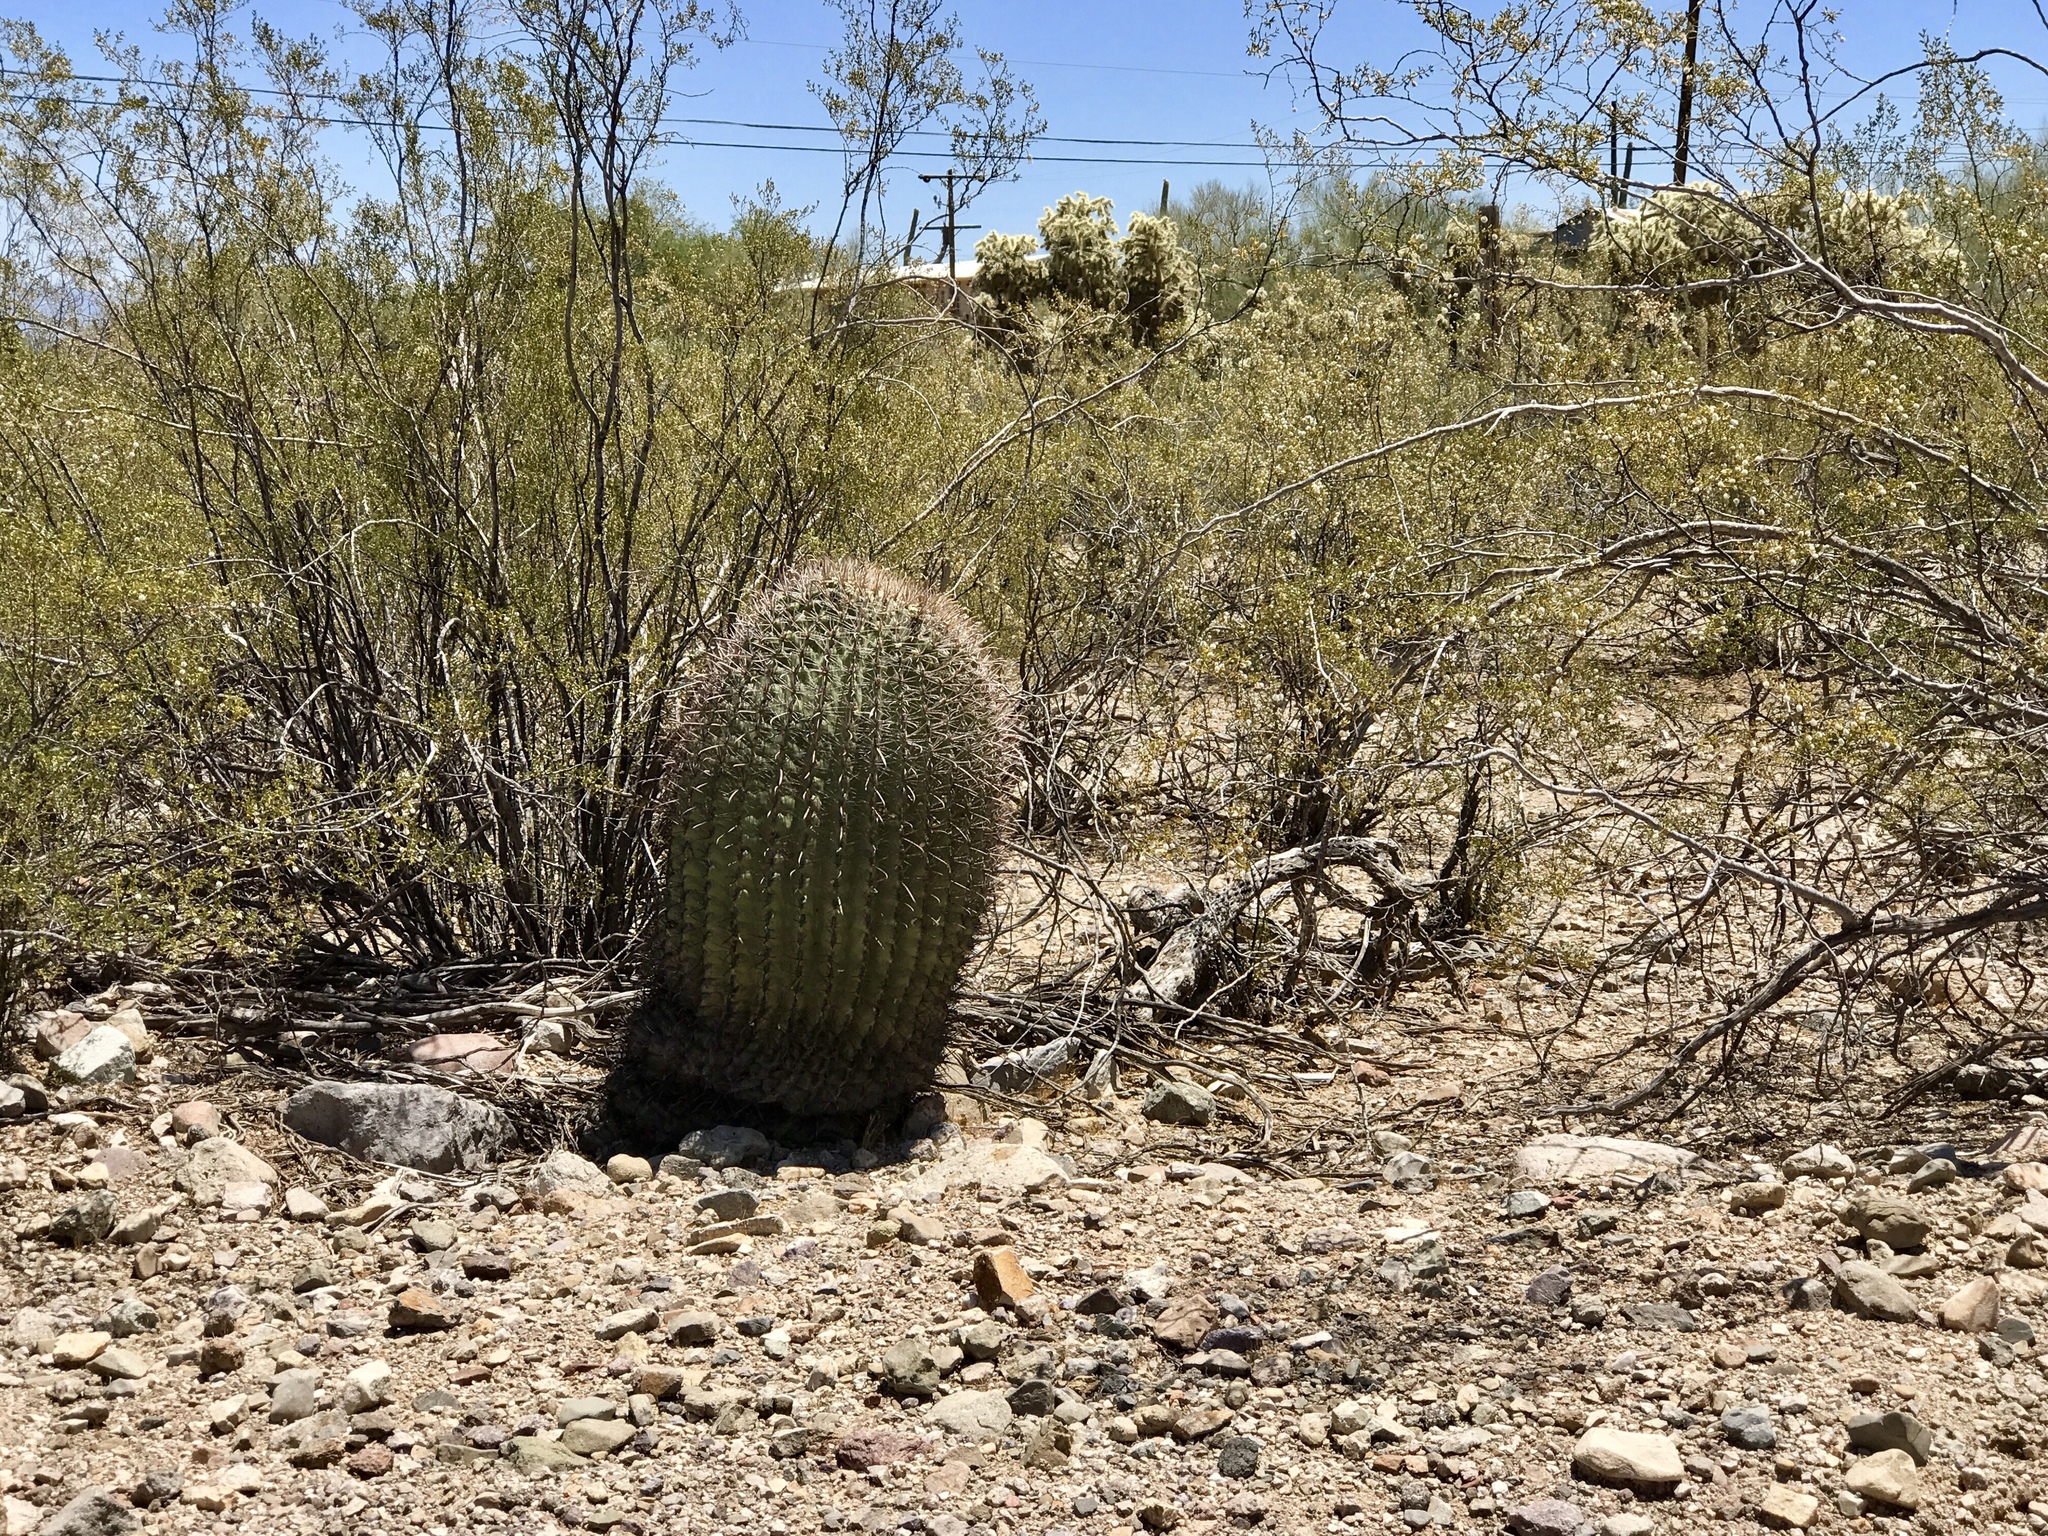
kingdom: Plantae
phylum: Tracheophyta
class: Magnoliopsida
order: Caryophyllales
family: Cactaceae
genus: Ferocactus
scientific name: Ferocactus wislizeni
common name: Candy barrel cactus
